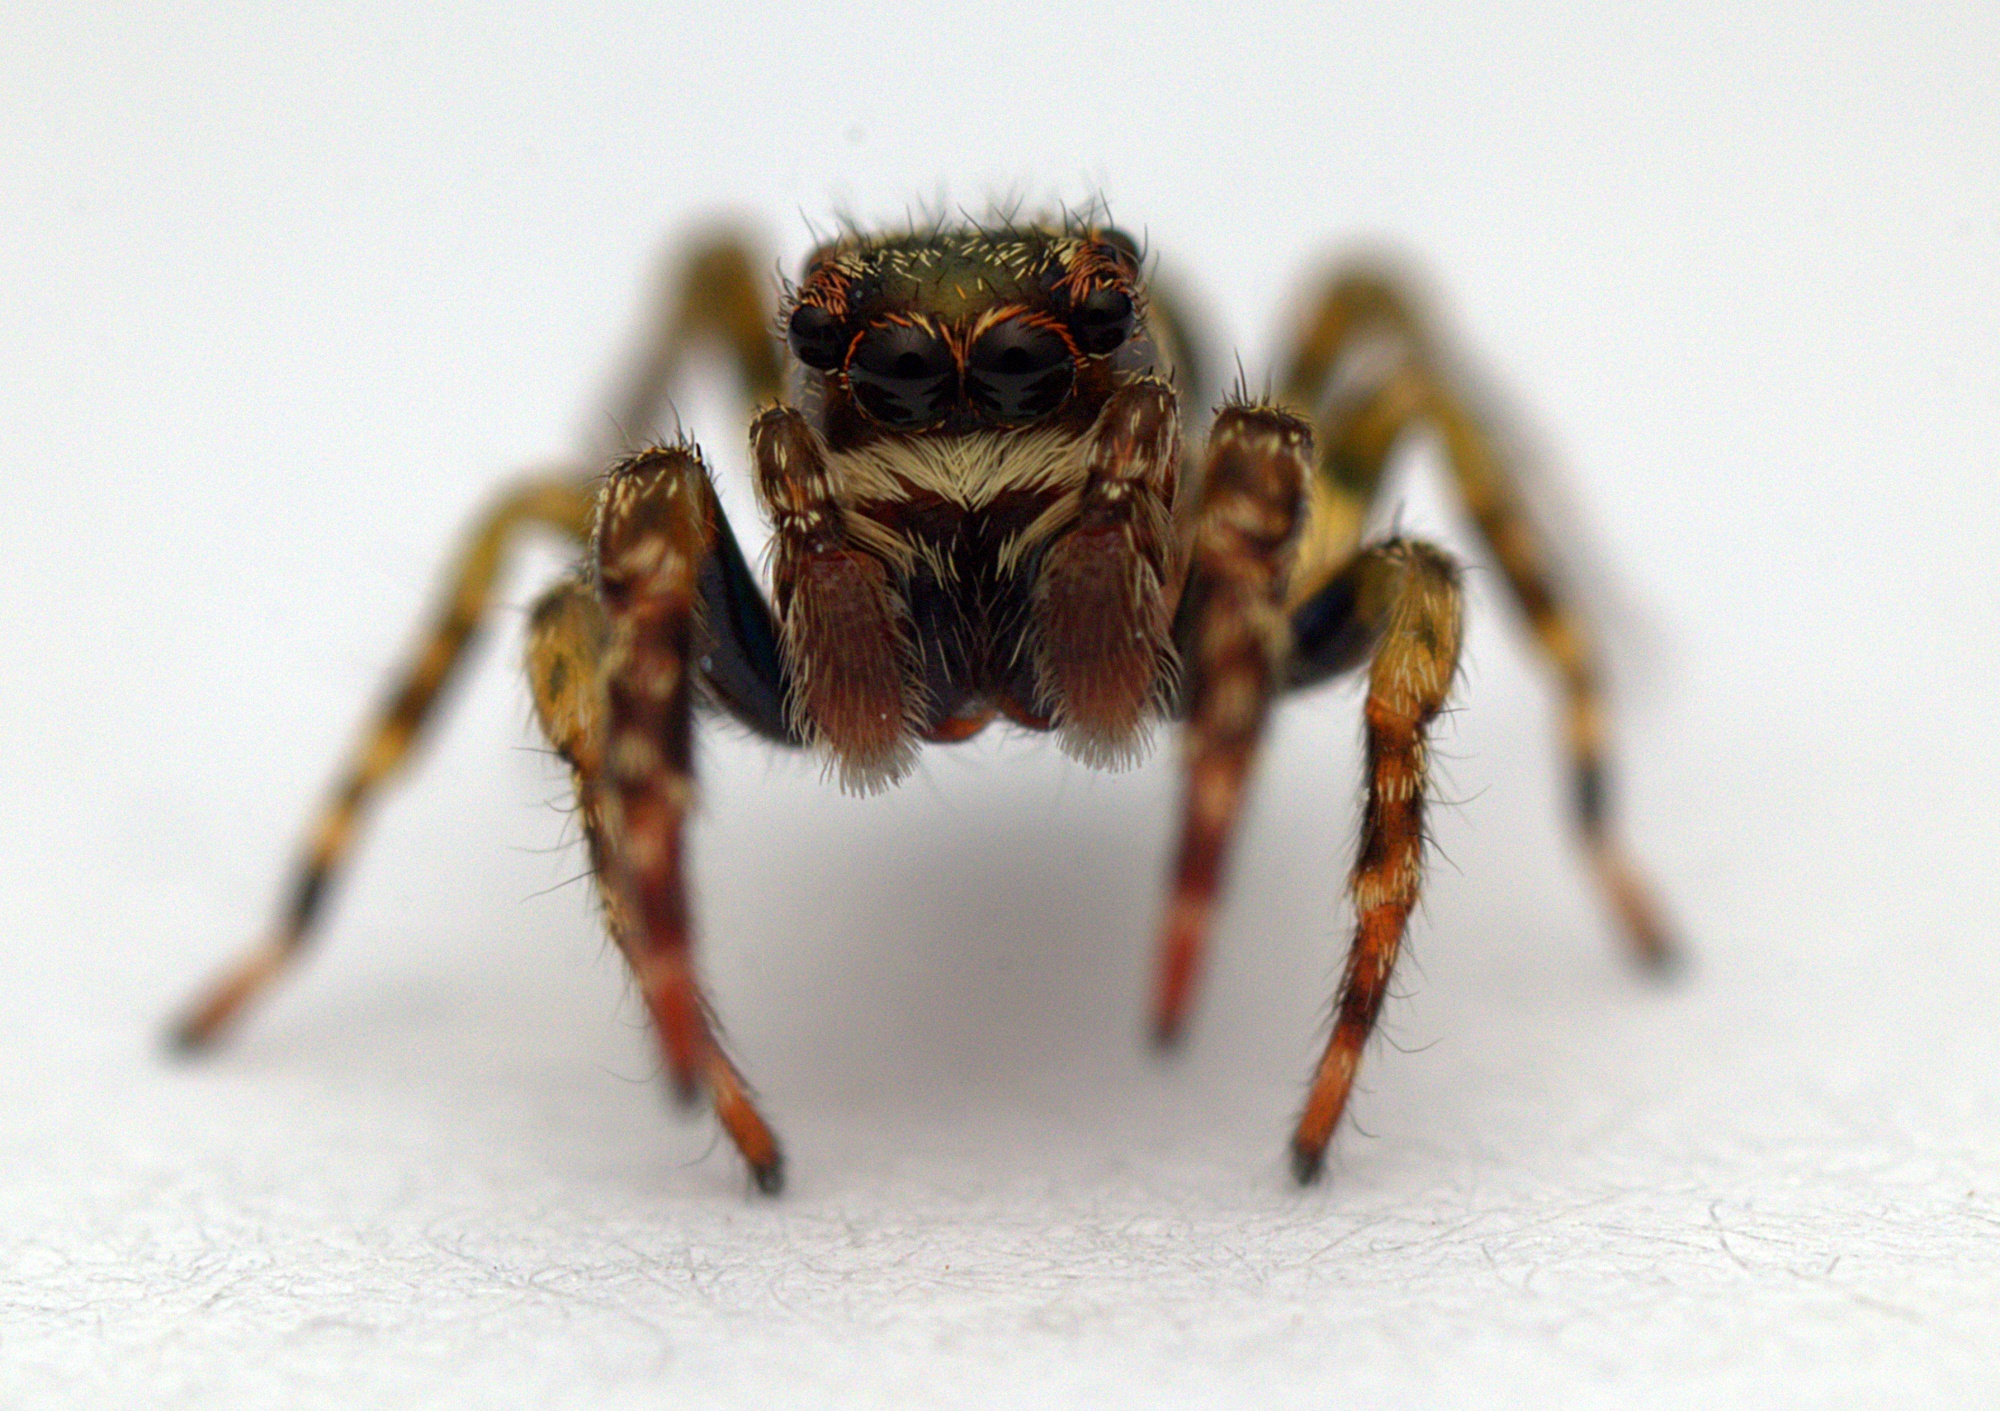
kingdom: Animalia
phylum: Arthropoda
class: Arachnida
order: Araneae
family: Salticidae
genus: Hinewaia
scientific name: Hinewaia embolica
